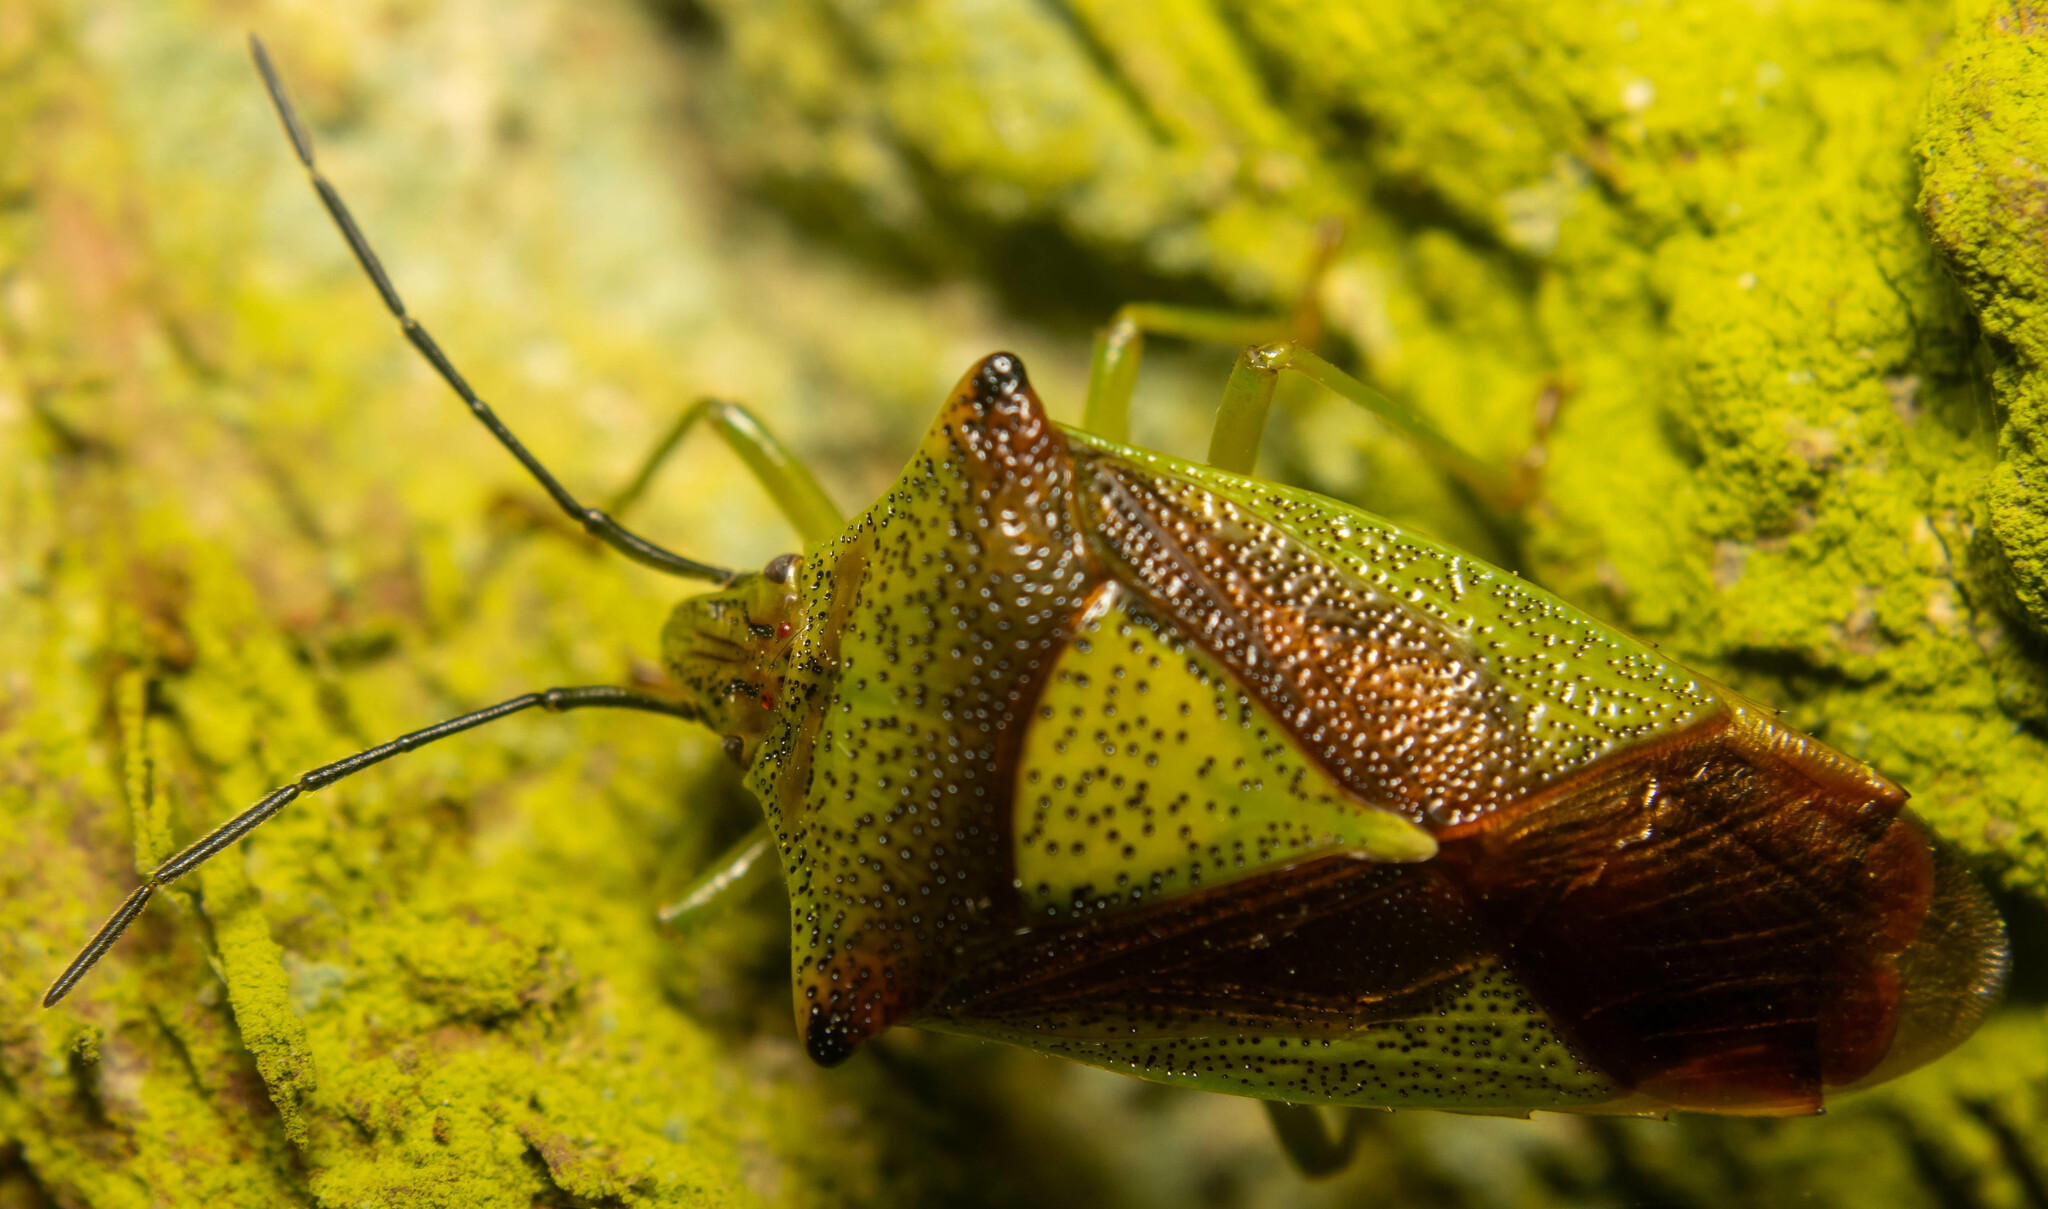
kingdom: Animalia
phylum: Arthropoda
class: Insecta
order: Hemiptera
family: Acanthosomatidae
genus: Acanthosoma
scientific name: Acanthosoma haemorrhoidale
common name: Hawthorn shieldbug
